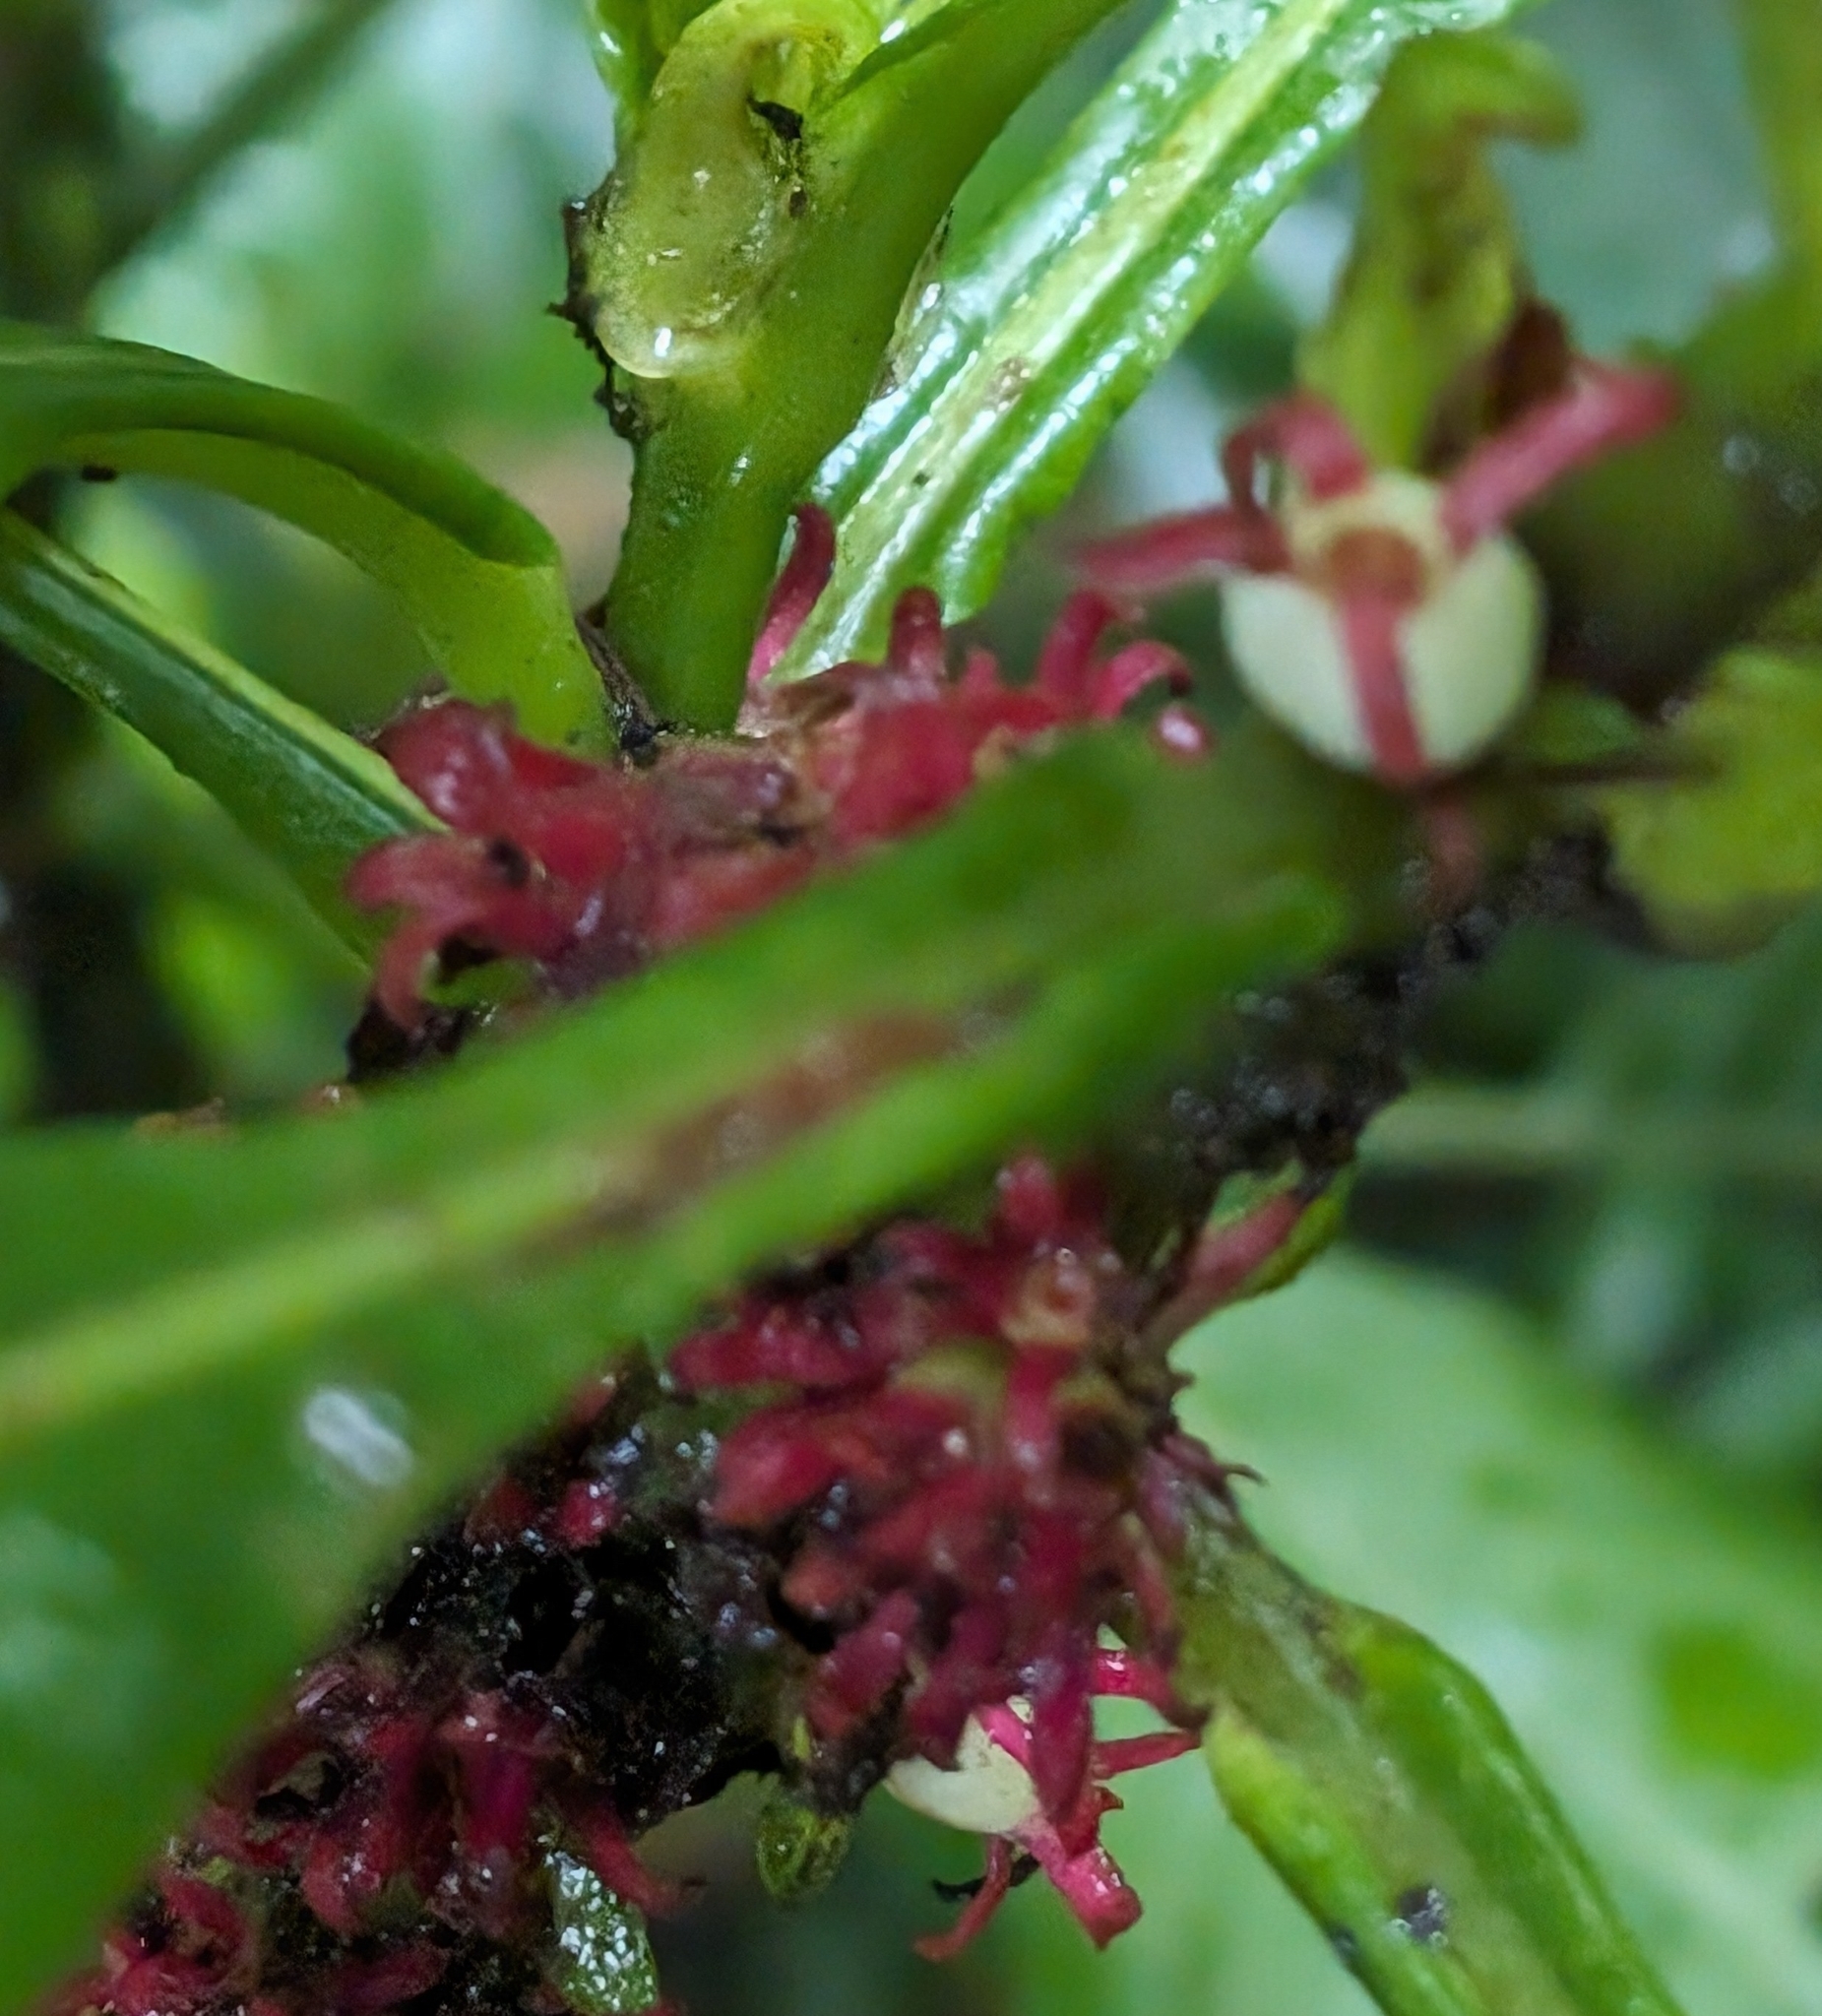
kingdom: Plantae
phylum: Tracheophyta
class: Magnoliopsida
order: Gentianales
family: Rubiaceae
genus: Hoffmannia
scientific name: Hoffmannia congesta
